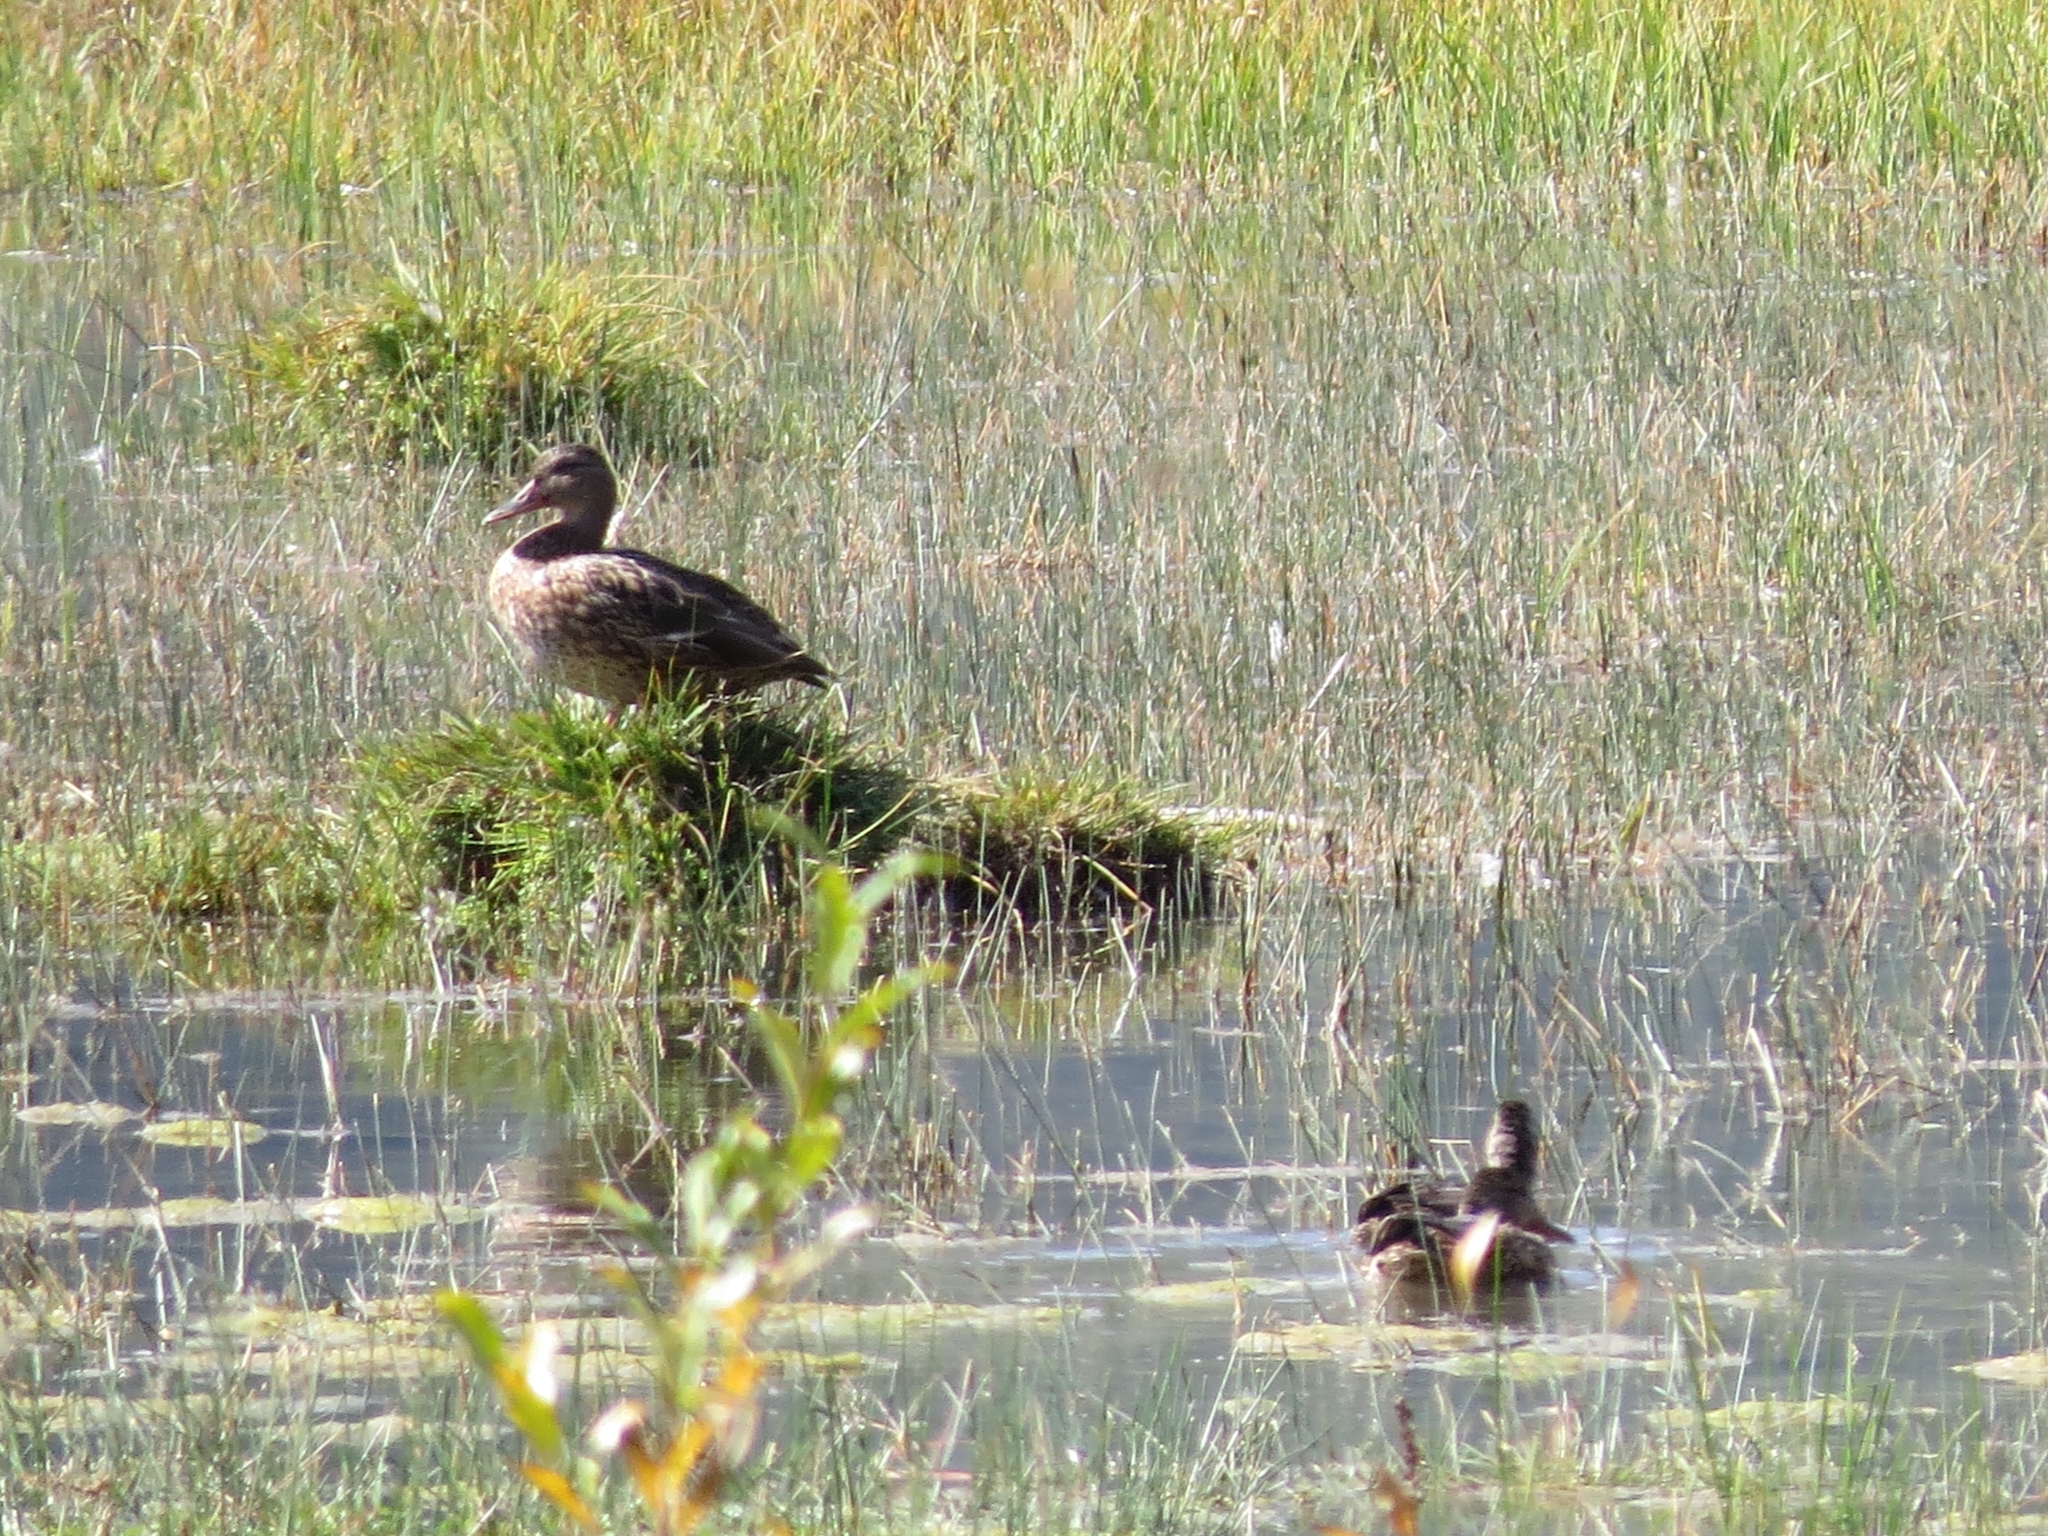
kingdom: Animalia
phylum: Chordata
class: Aves
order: Anseriformes
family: Anatidae
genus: Anas
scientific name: Anas platyrhynchos
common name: Mallard
